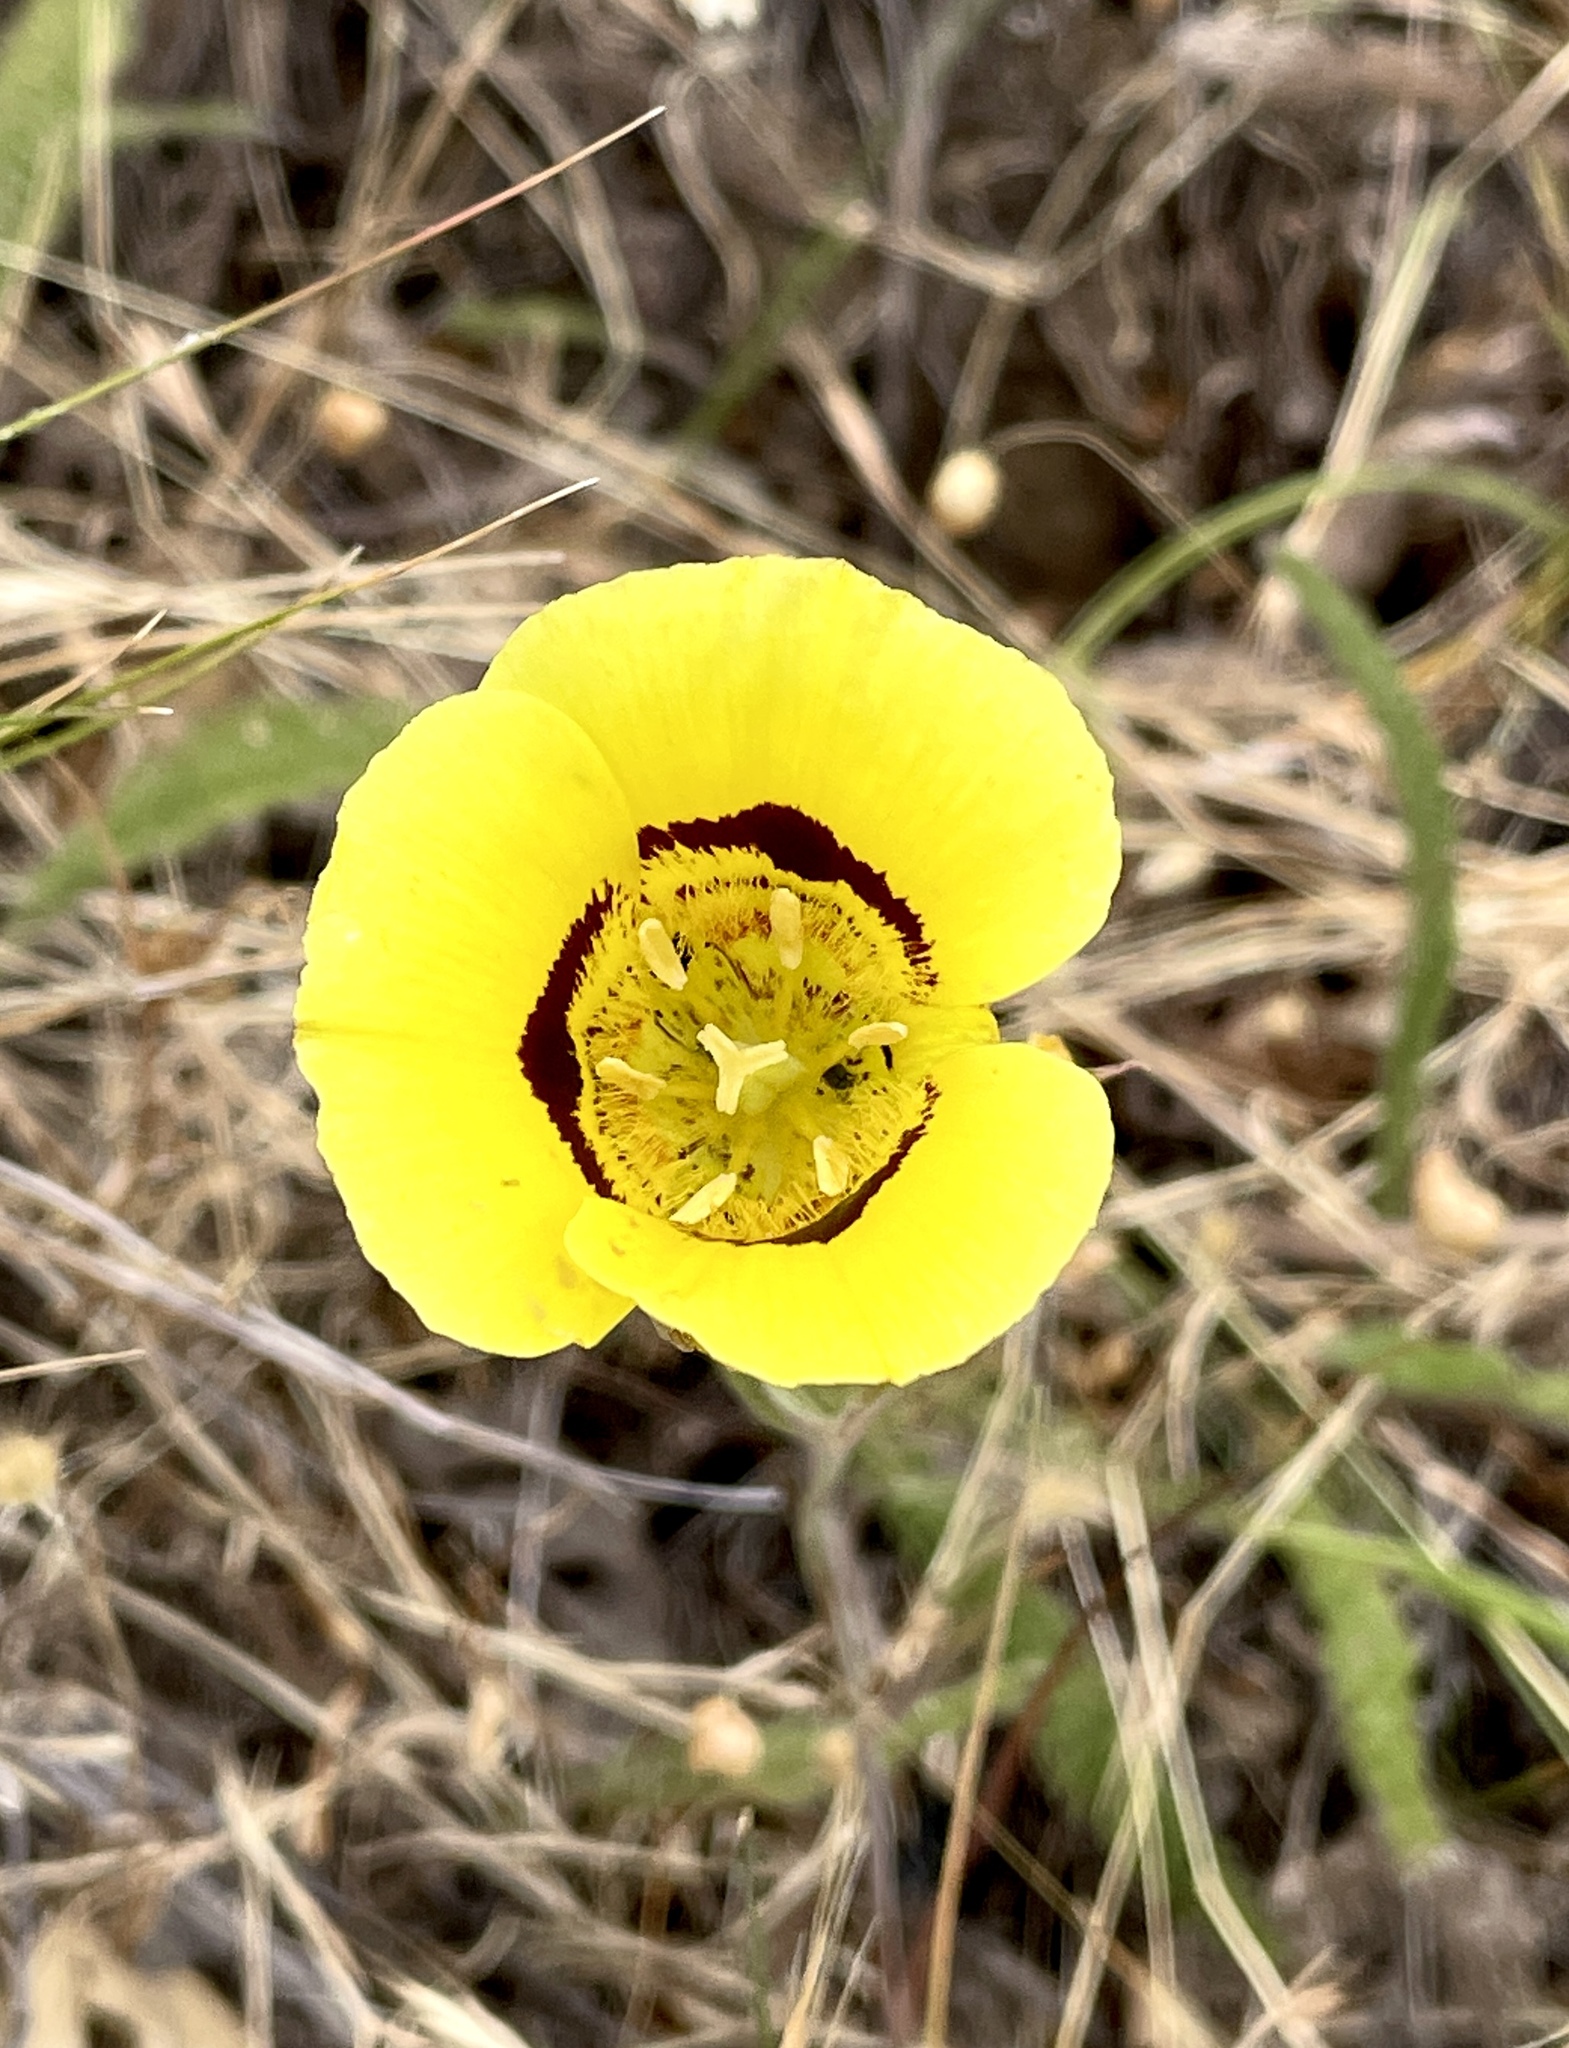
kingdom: Plantae
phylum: Tracheophyta
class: Liliopsida
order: Liliales
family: Liliaceae
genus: Calochortus
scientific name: Calochortus luteus
